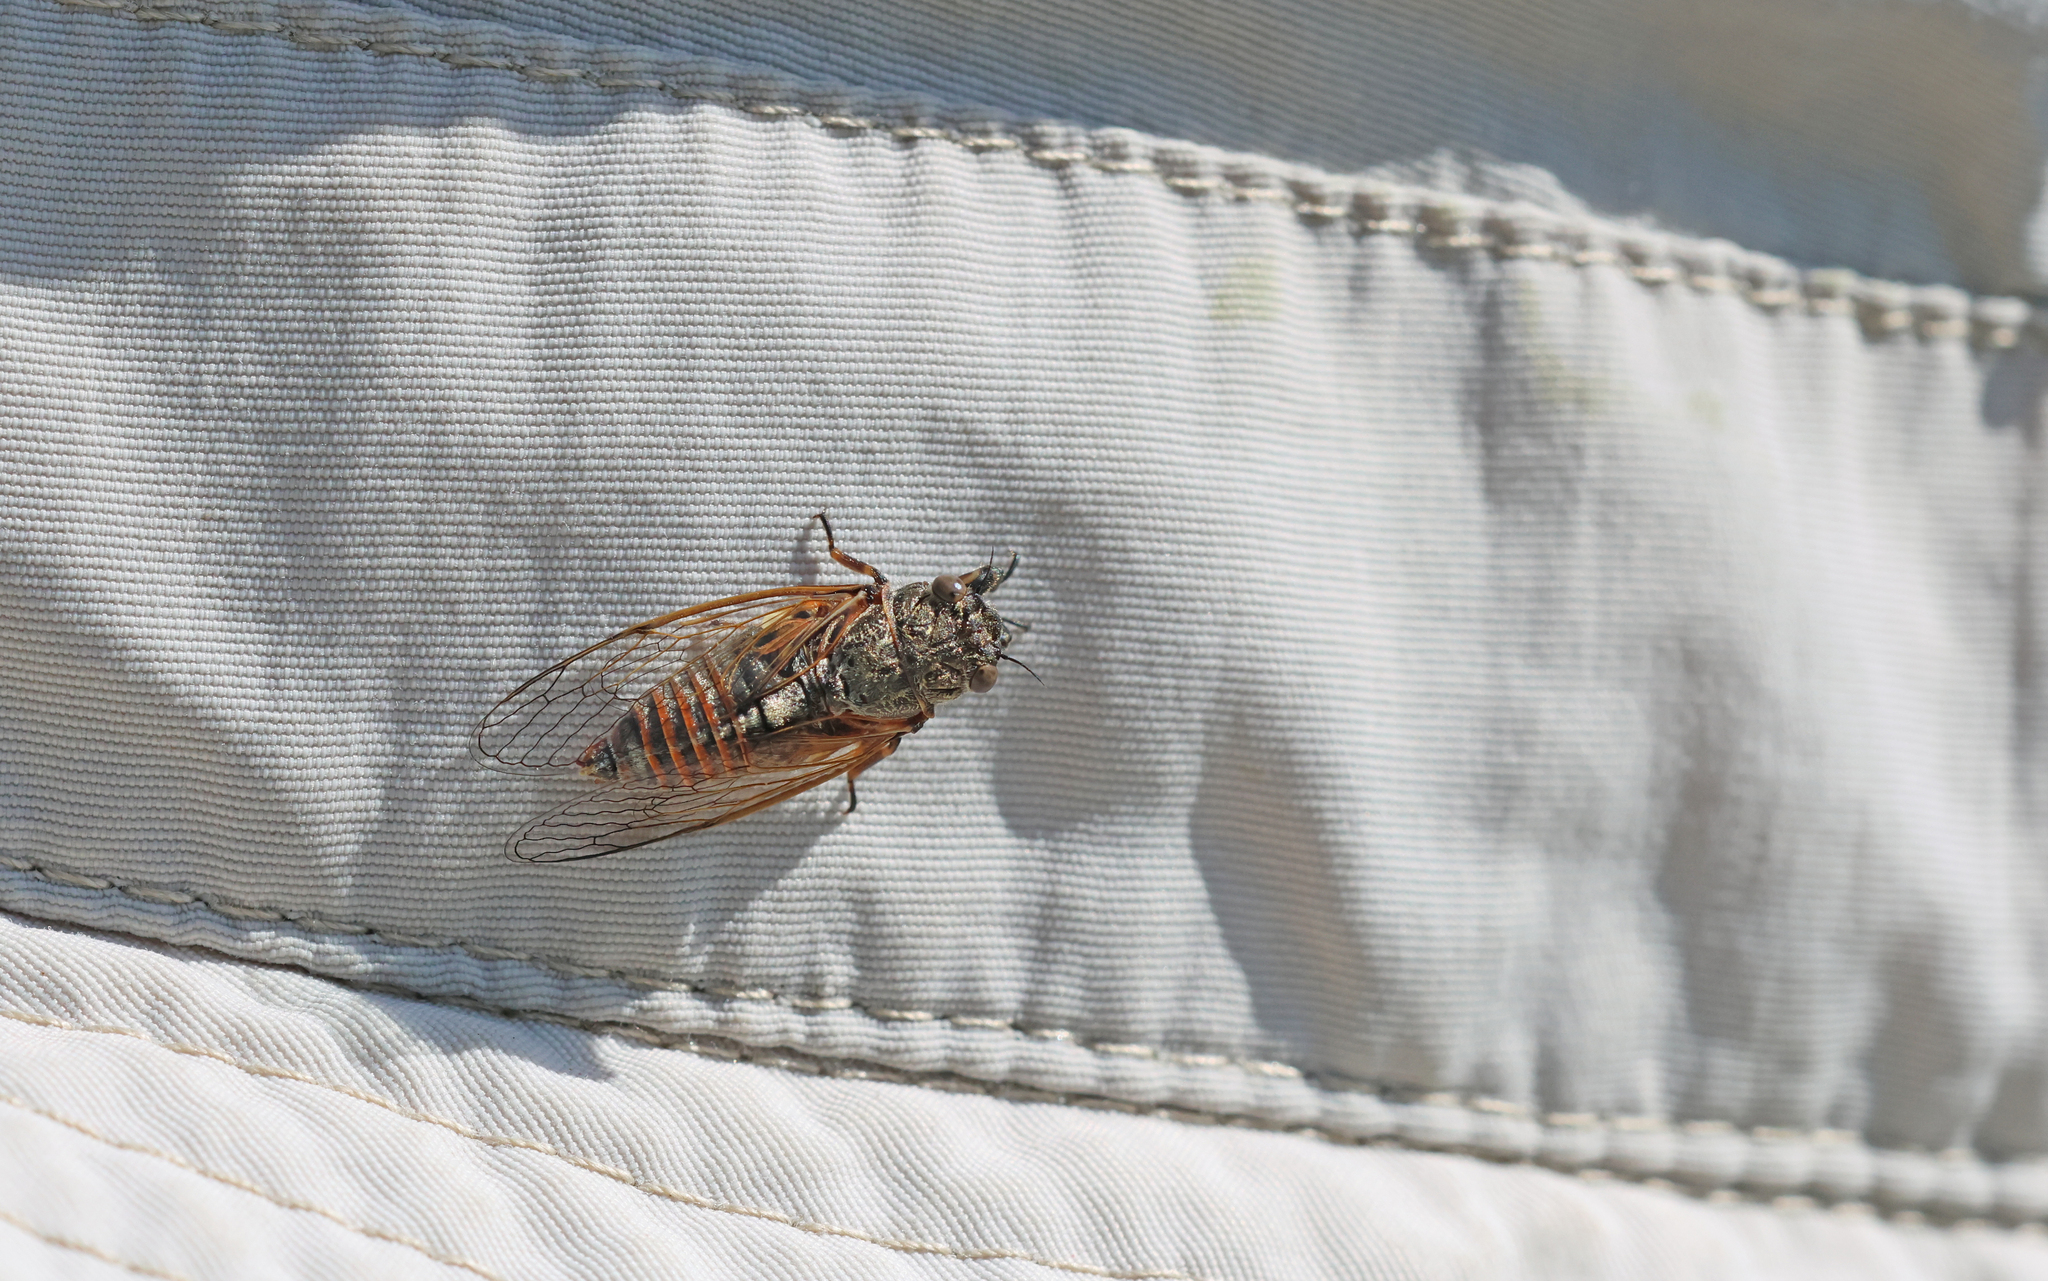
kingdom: Animalia
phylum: Arthropoda
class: Insecta
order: Hemiptera
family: Cicadidae
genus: Oligoglena
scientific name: Oligoglena tibialis
